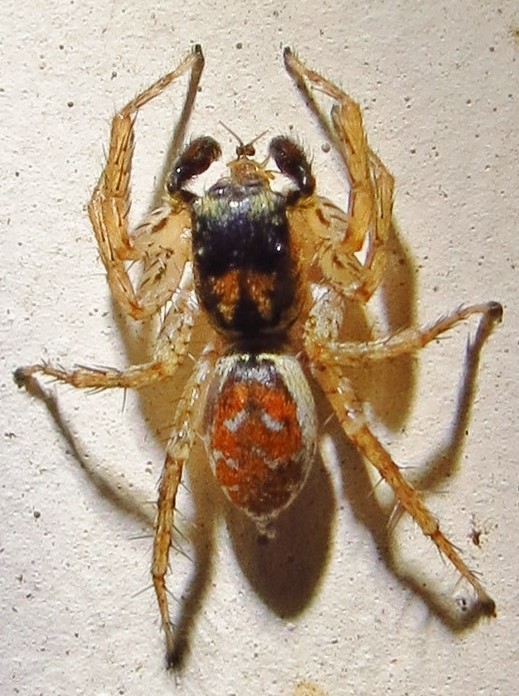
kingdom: Animalia
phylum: Arthropoda
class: Arachnida
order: Araneae
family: Salticidae
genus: Maevia
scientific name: Maevia inclemens
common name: Dimorphic jumper
